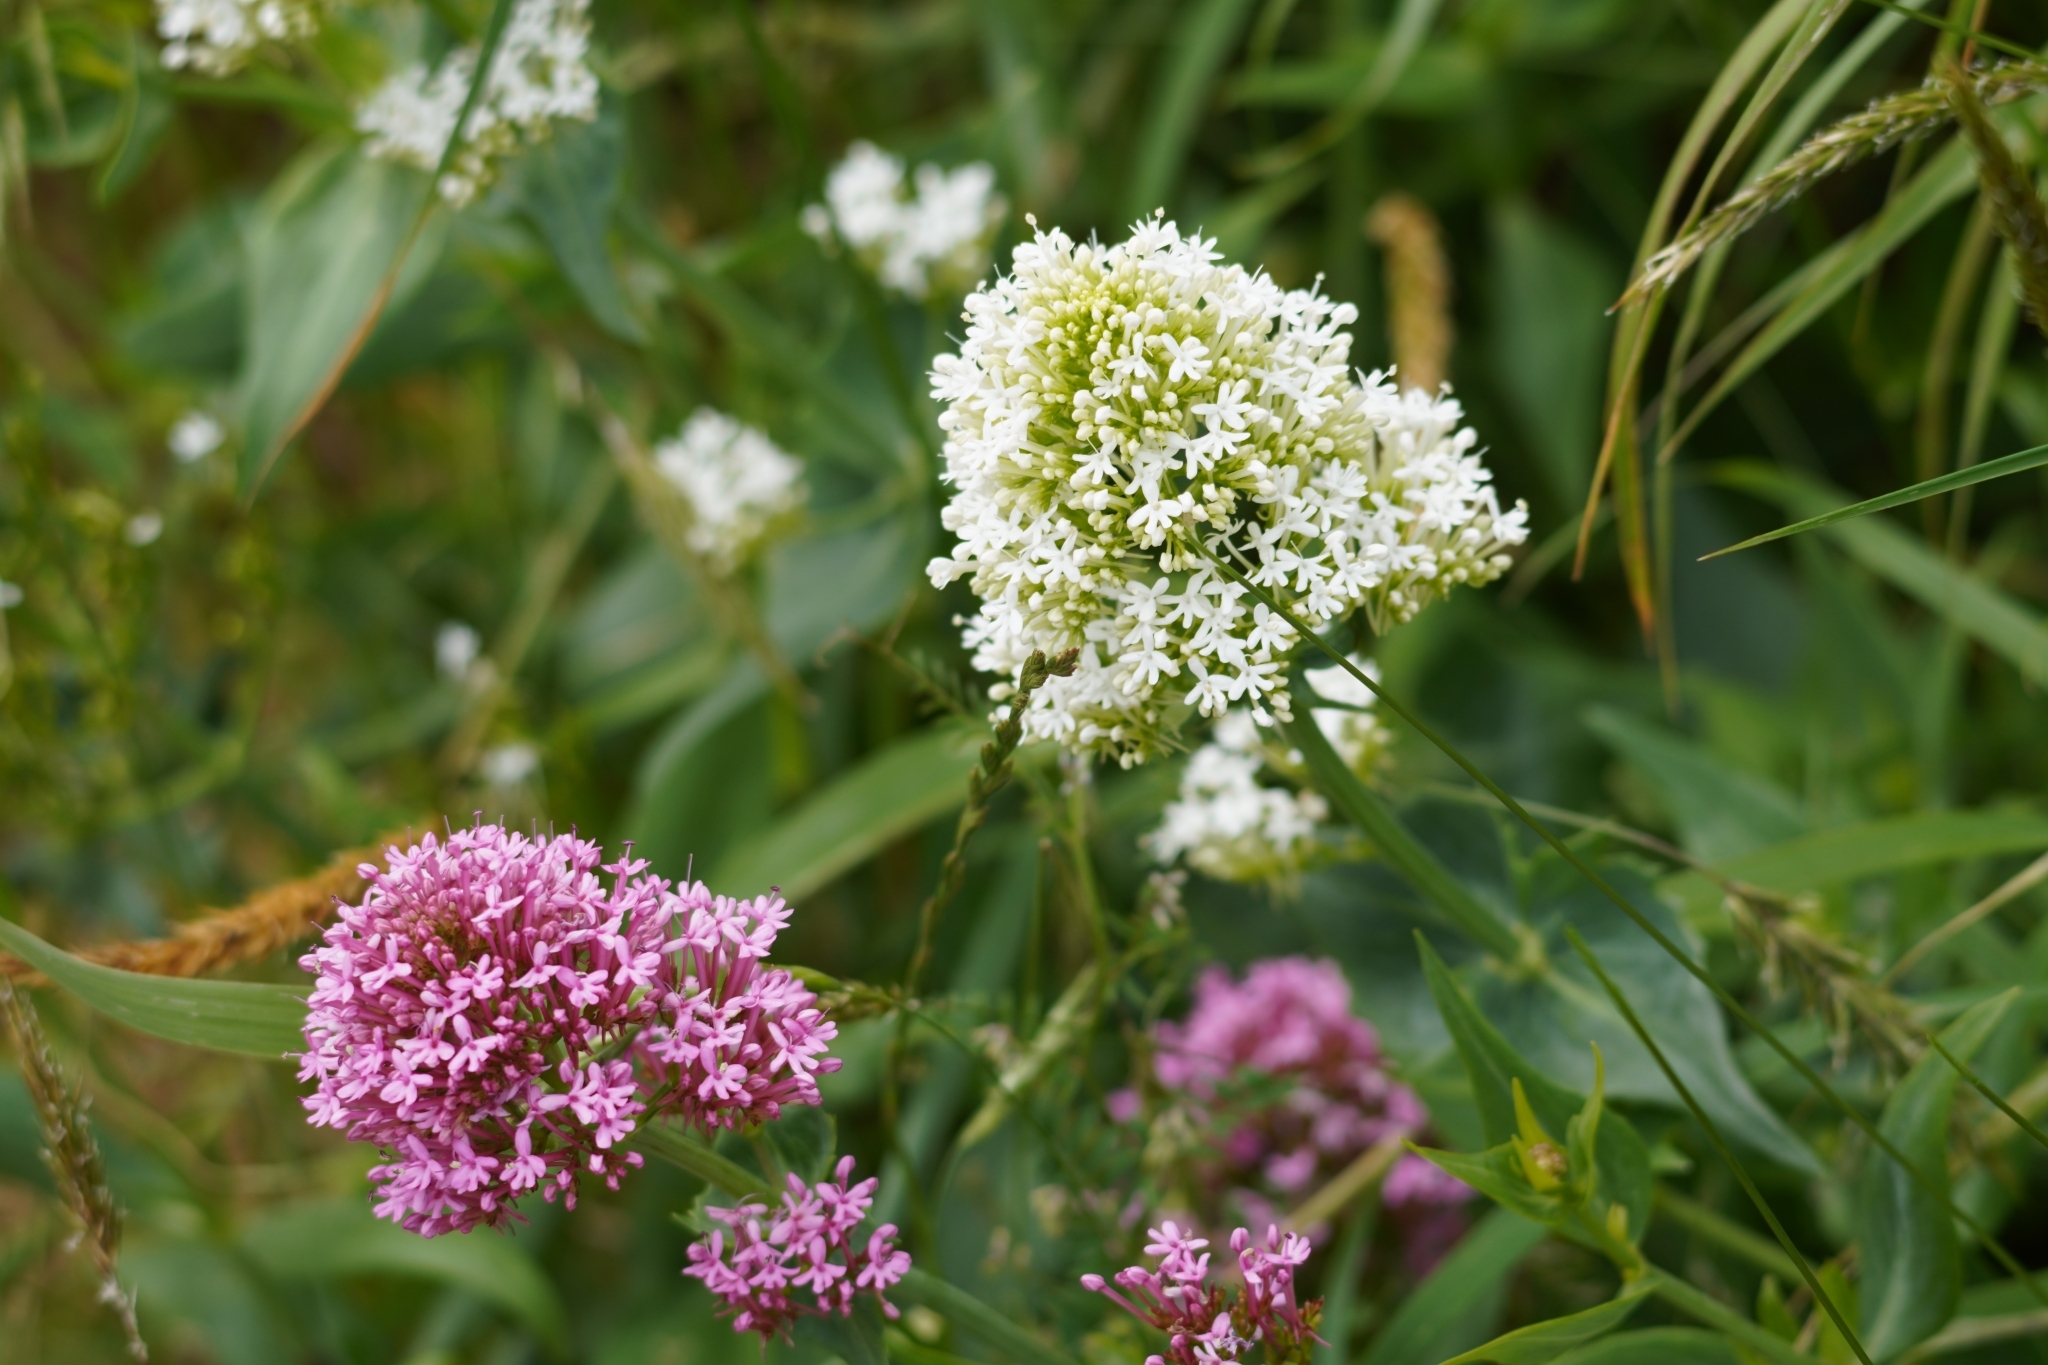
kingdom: Plantae
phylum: Tracheophyta
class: Magnoliopsida
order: Dipsacales
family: Caprifoliaceae
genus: Centranthus
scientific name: Centranthus ruber
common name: Red valerian
